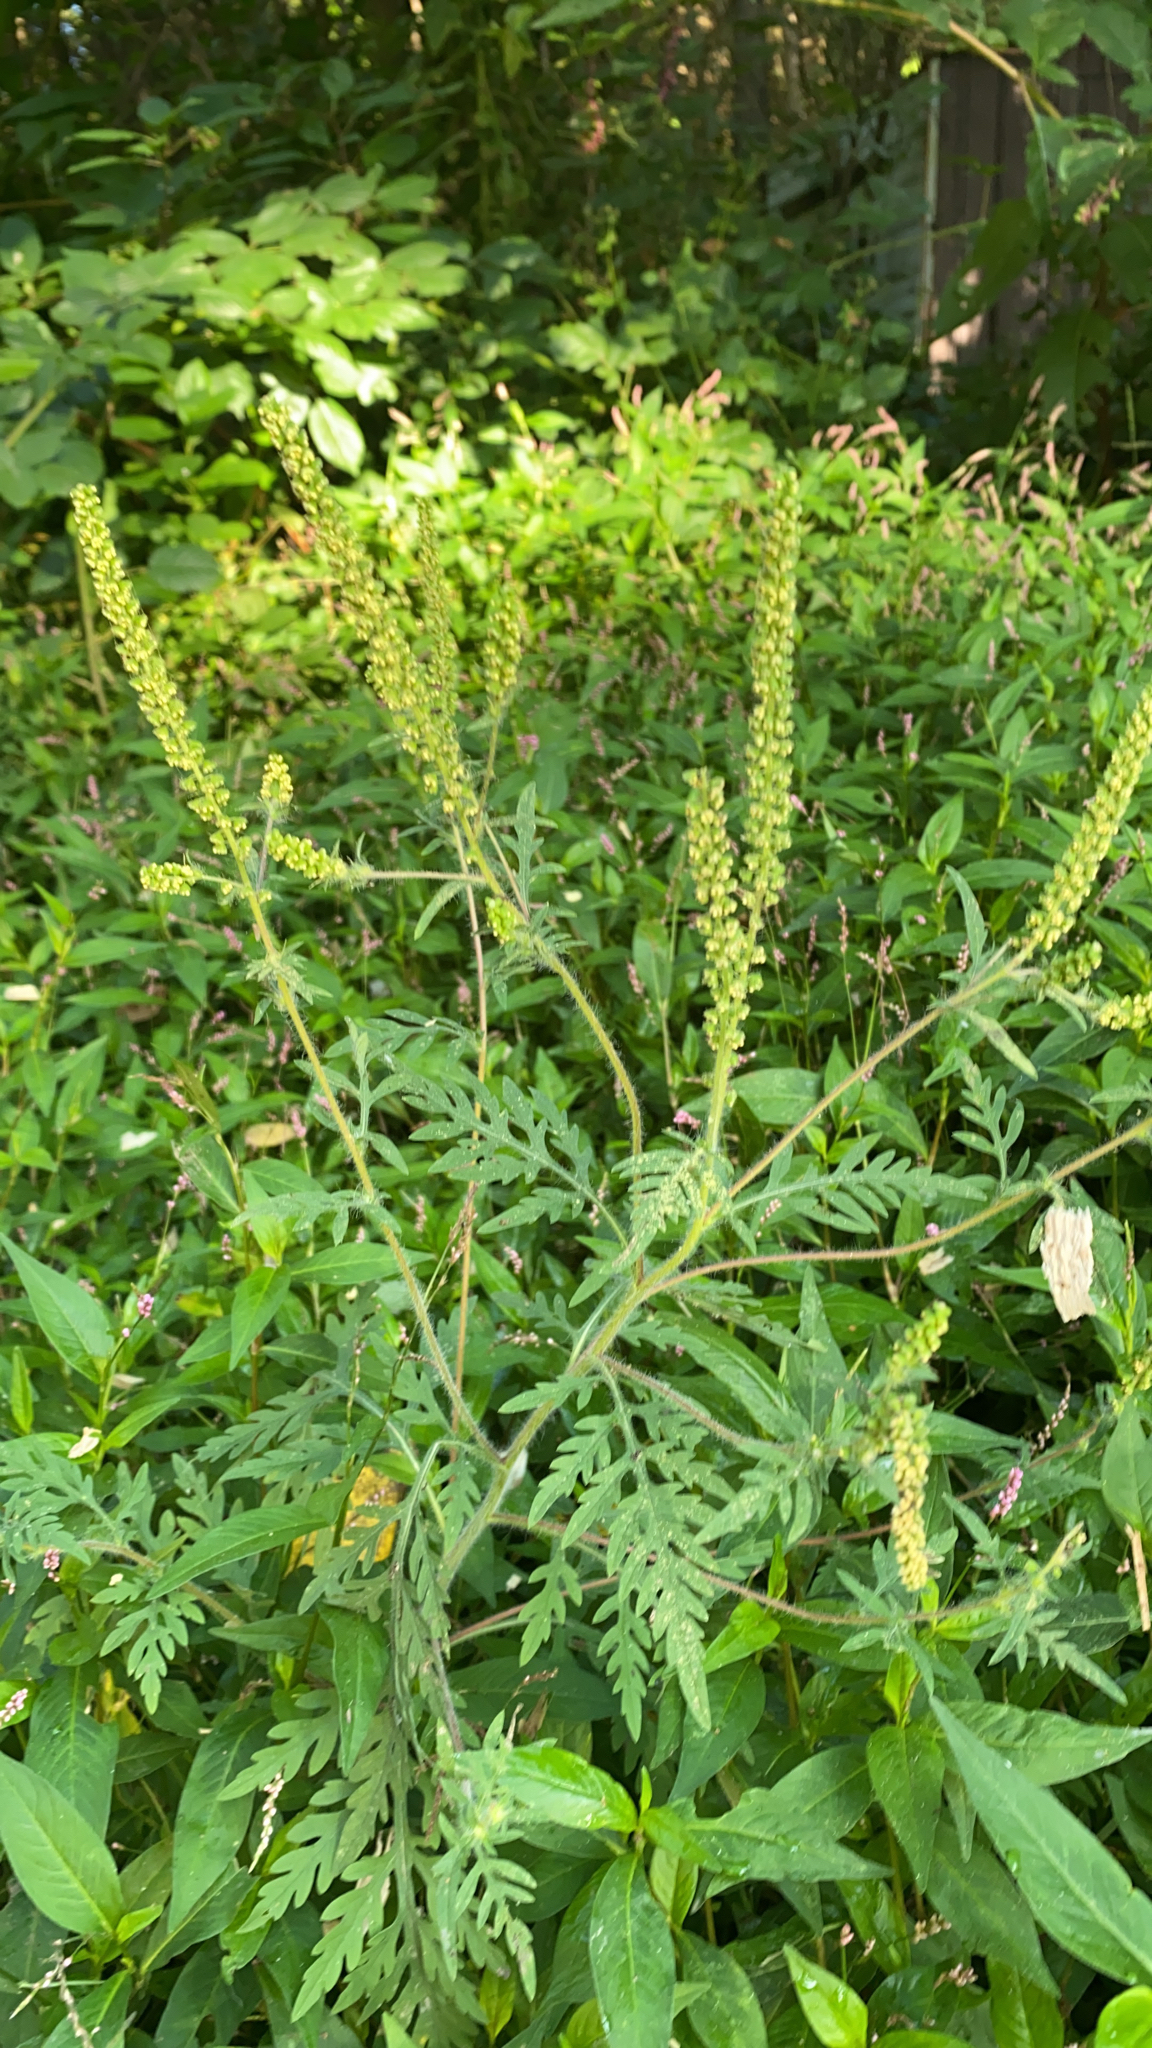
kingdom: Plantae
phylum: Tracheophyta
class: Magnoliopsida
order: Asterales
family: Asteraceae
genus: Ambrosia
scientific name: Ambrosia artemisiifolia
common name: Annual ragweed
